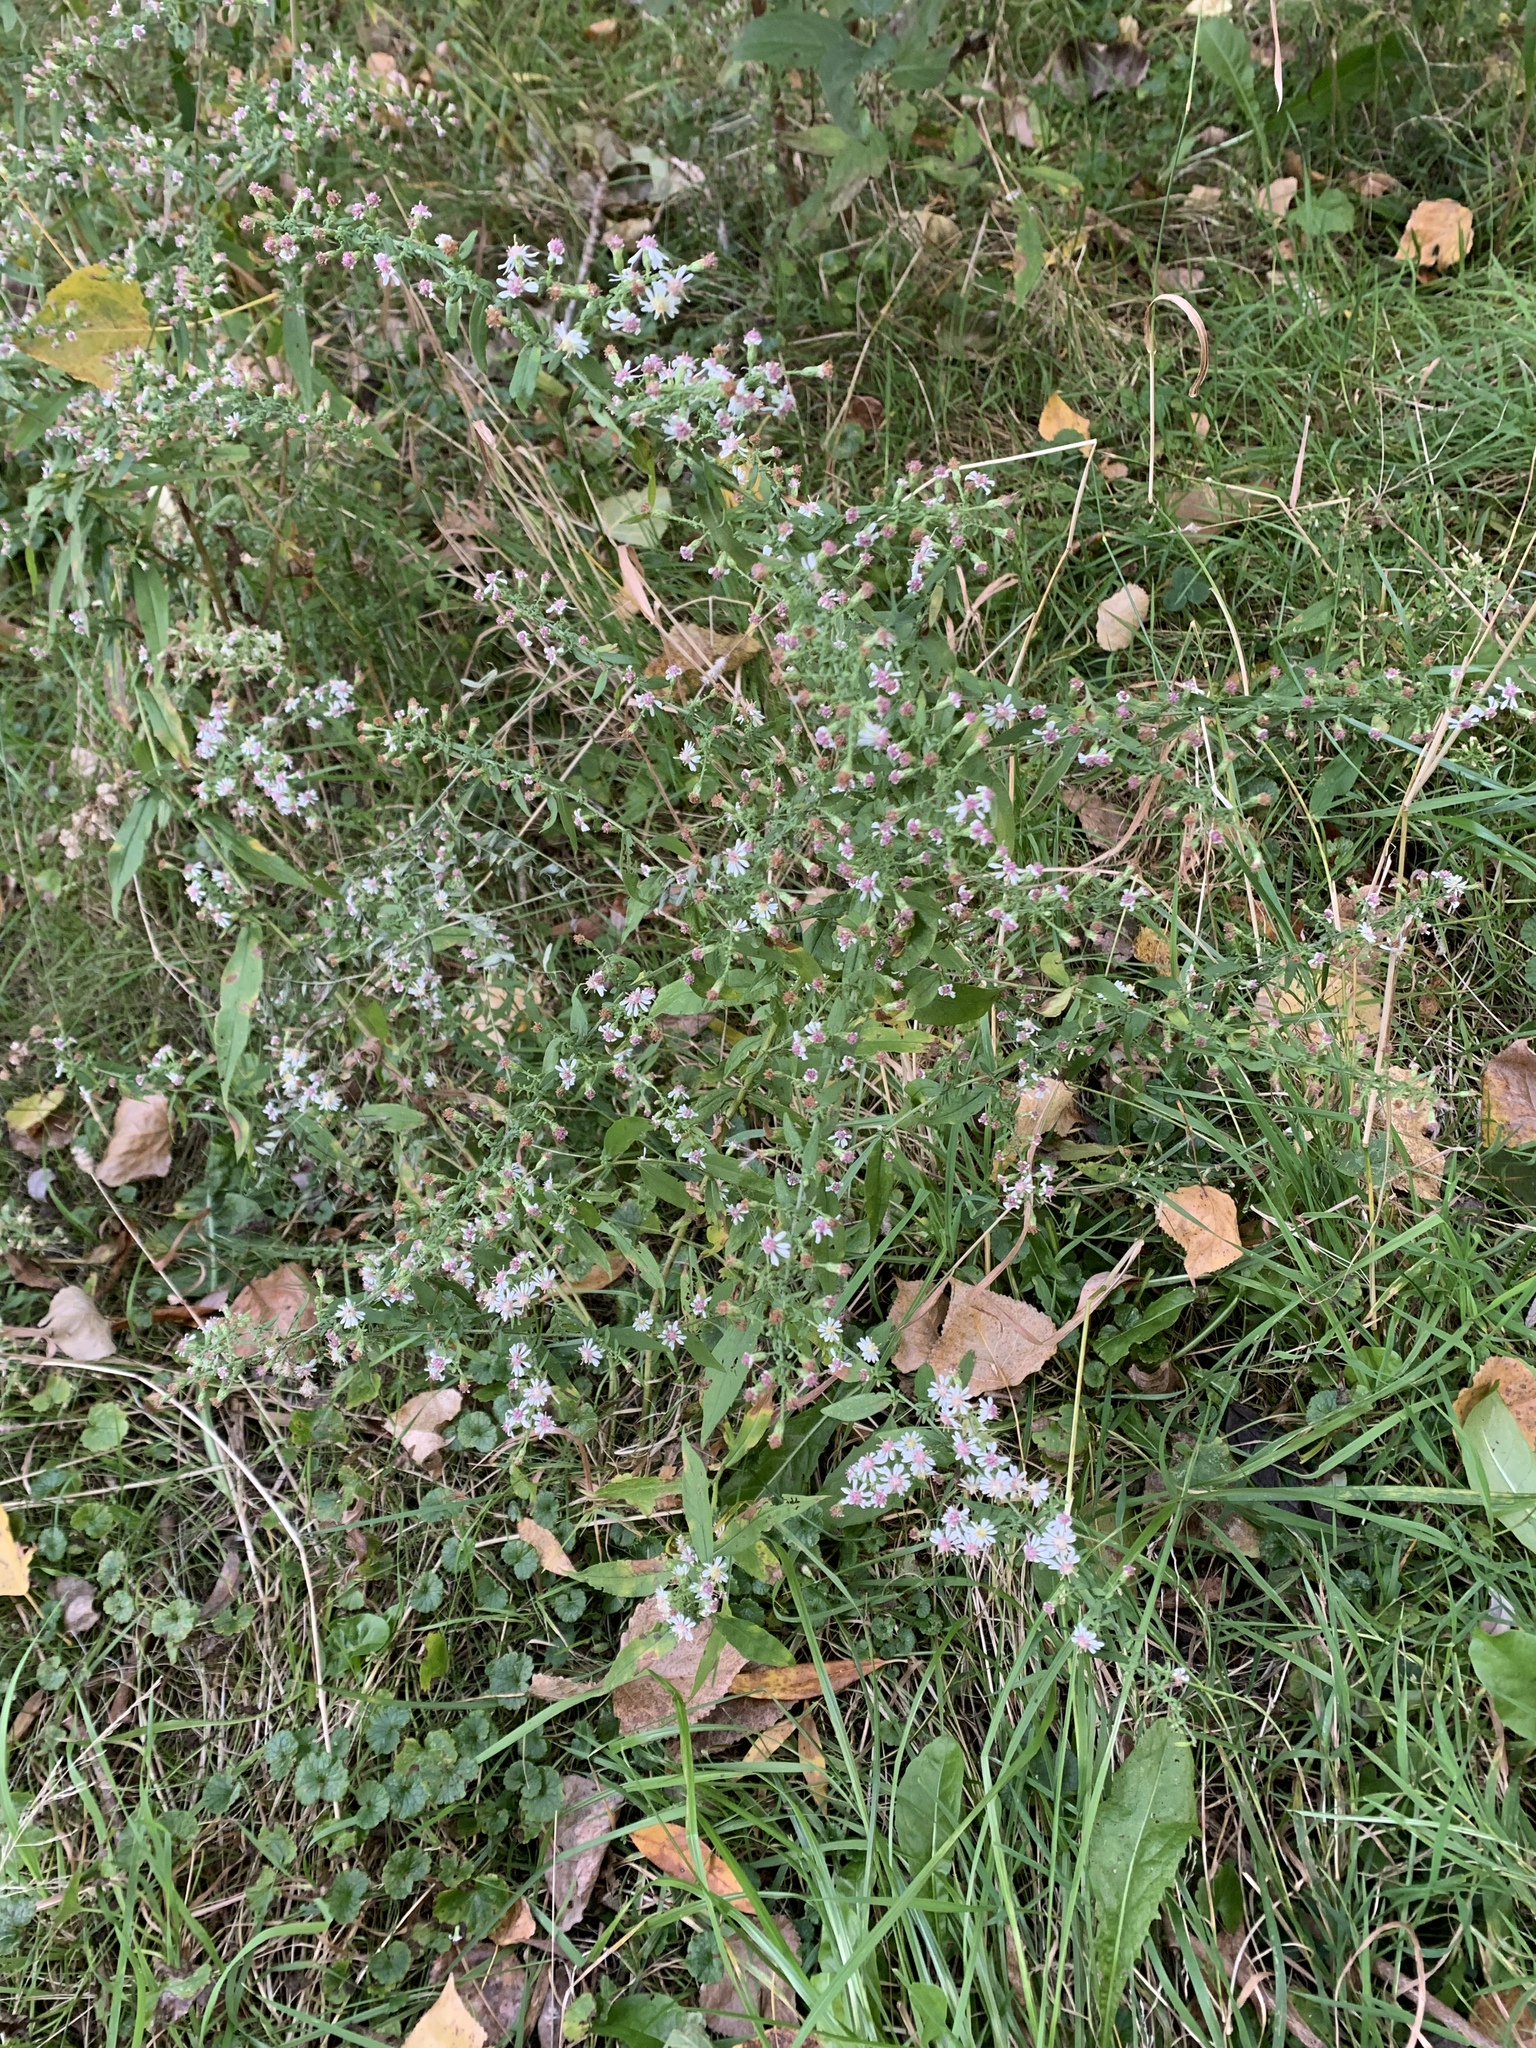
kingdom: Plantae
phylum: Tracheophyta
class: Magnoliopsida
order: Asterales
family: Asteraceae
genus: Symphyotrichum
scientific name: Symphyotrichum lateriflorum
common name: Calico aster
